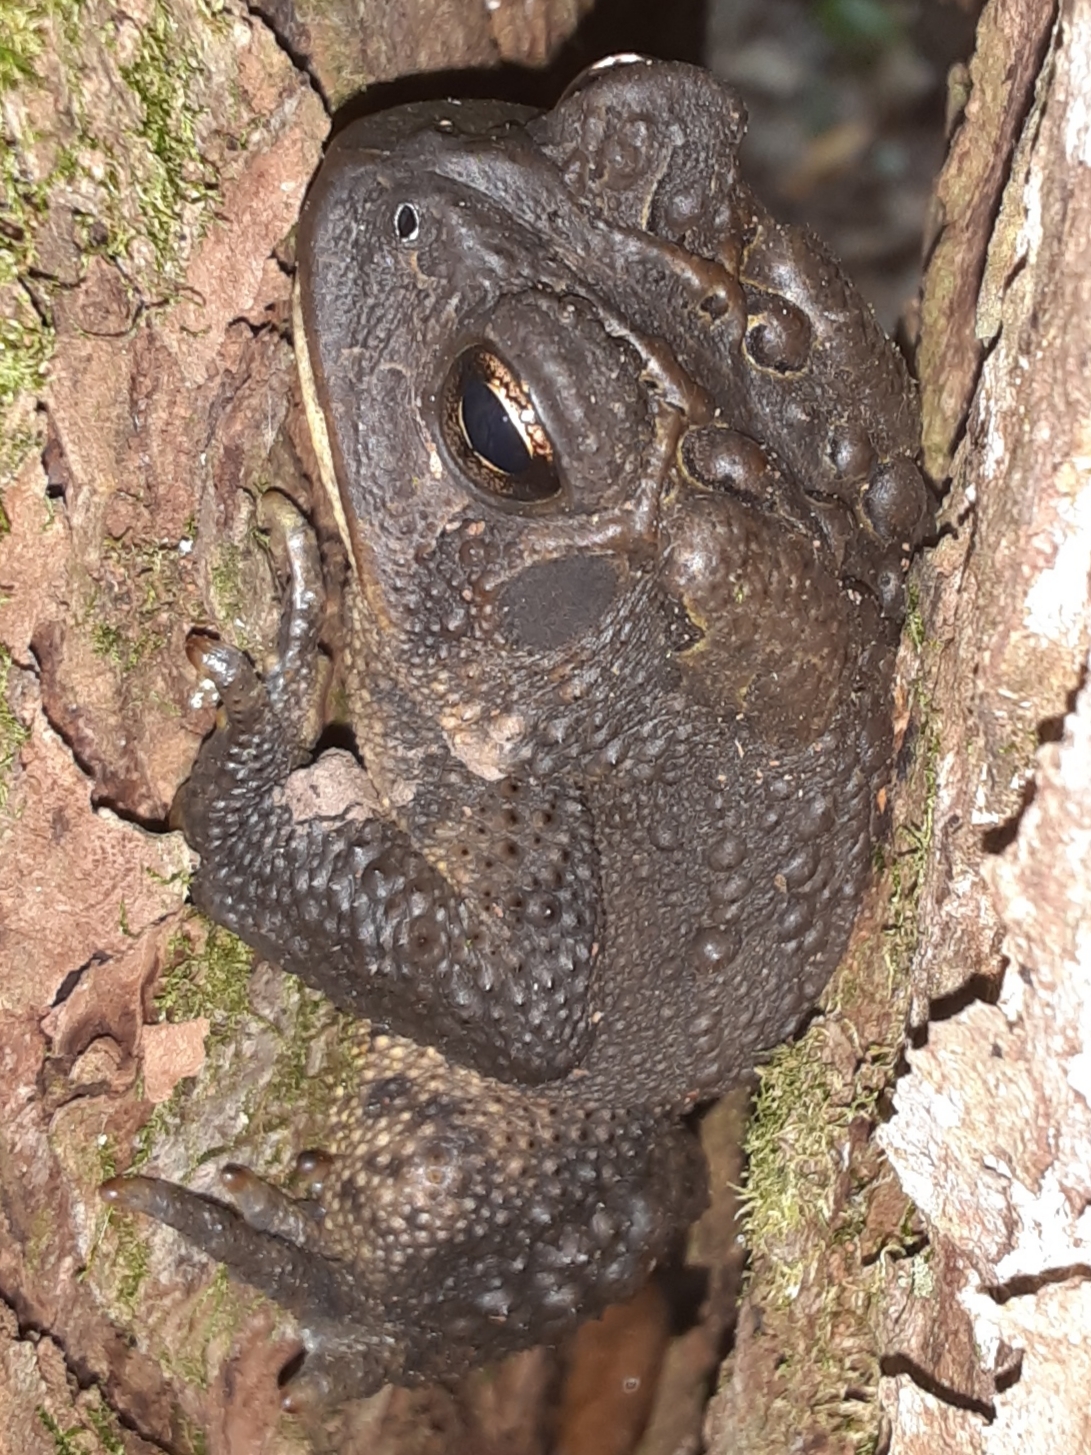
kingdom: Animalia
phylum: Chordata
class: Amphibia
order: Anura
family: Bufonidae
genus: Anaxyrus
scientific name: Anaxyrus americanus
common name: American toad
